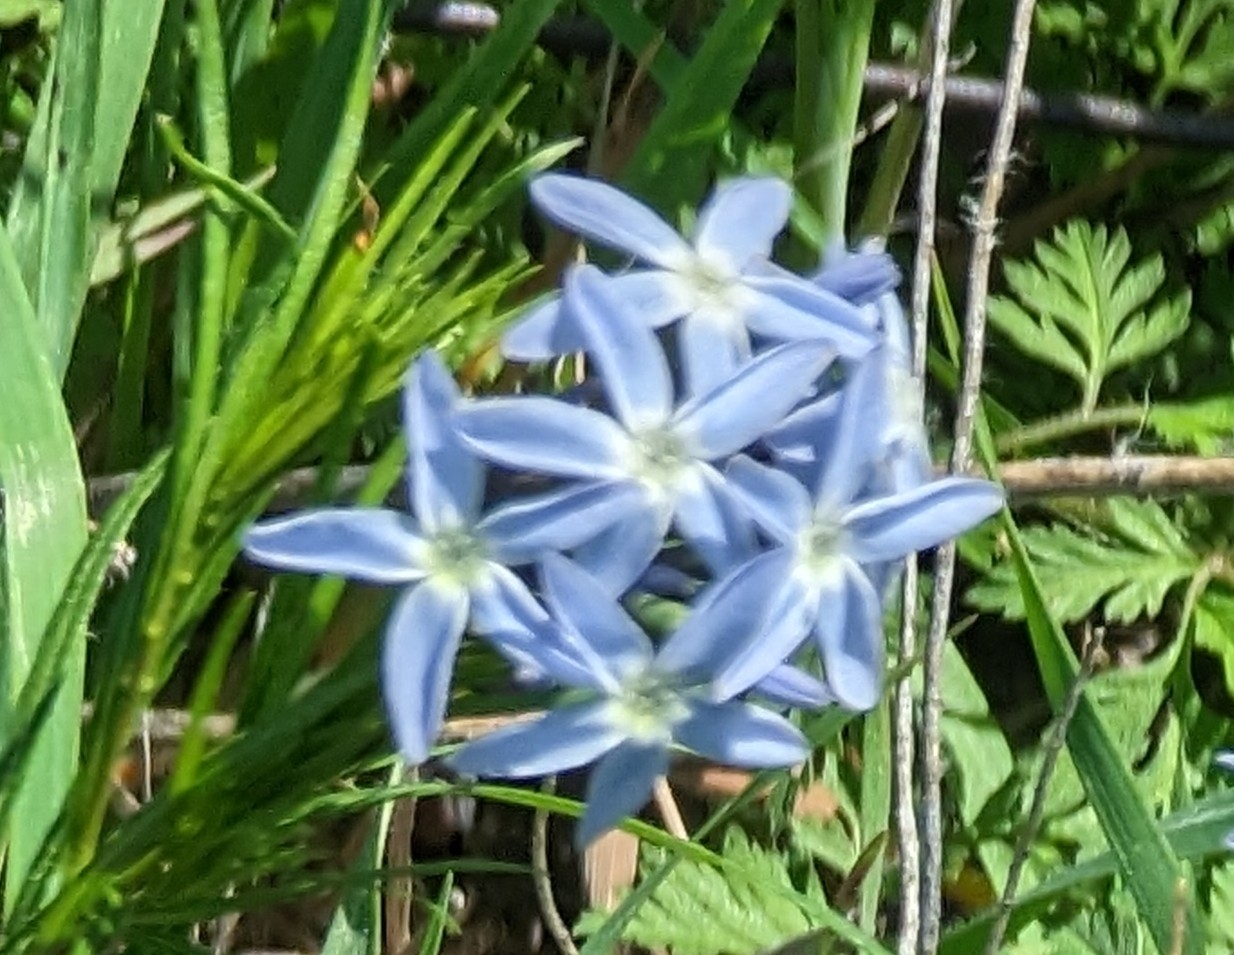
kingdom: Plantae
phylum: Tracheophyta
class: Magnoliopsida
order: Gentianales
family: Apocynaceae
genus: Amsonia
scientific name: Amsonia ciliata
